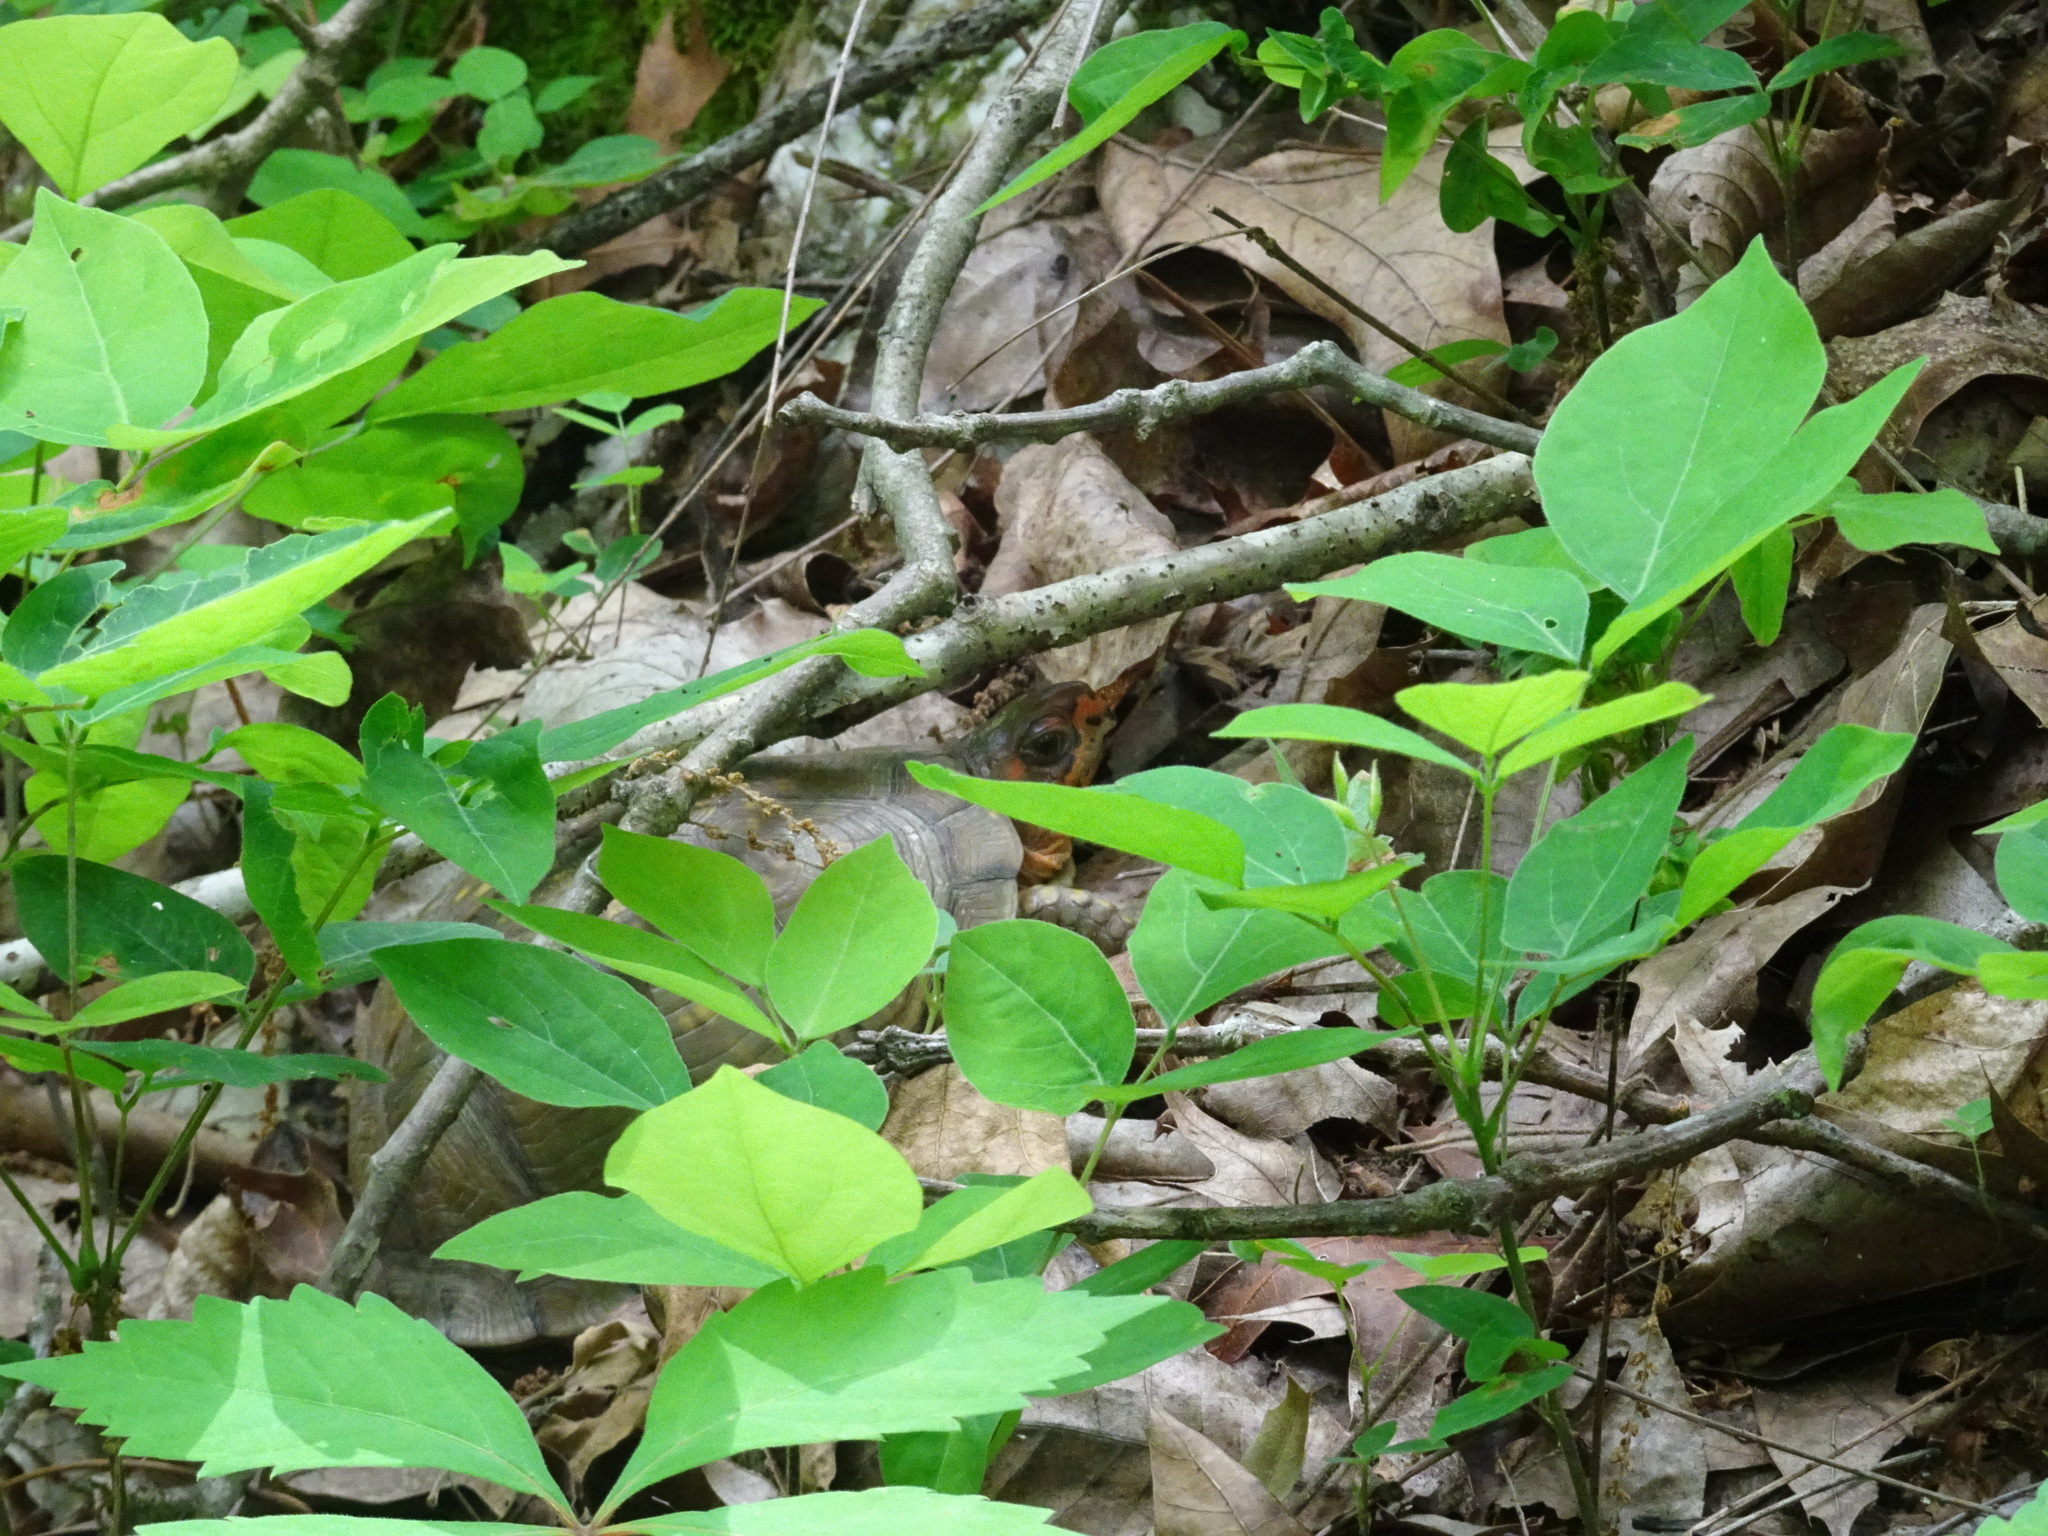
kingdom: Animalia
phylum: Chordata
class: Testudines
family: Emydidae
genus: Terrapene
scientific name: Terrapene carolina
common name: Common box turtle
